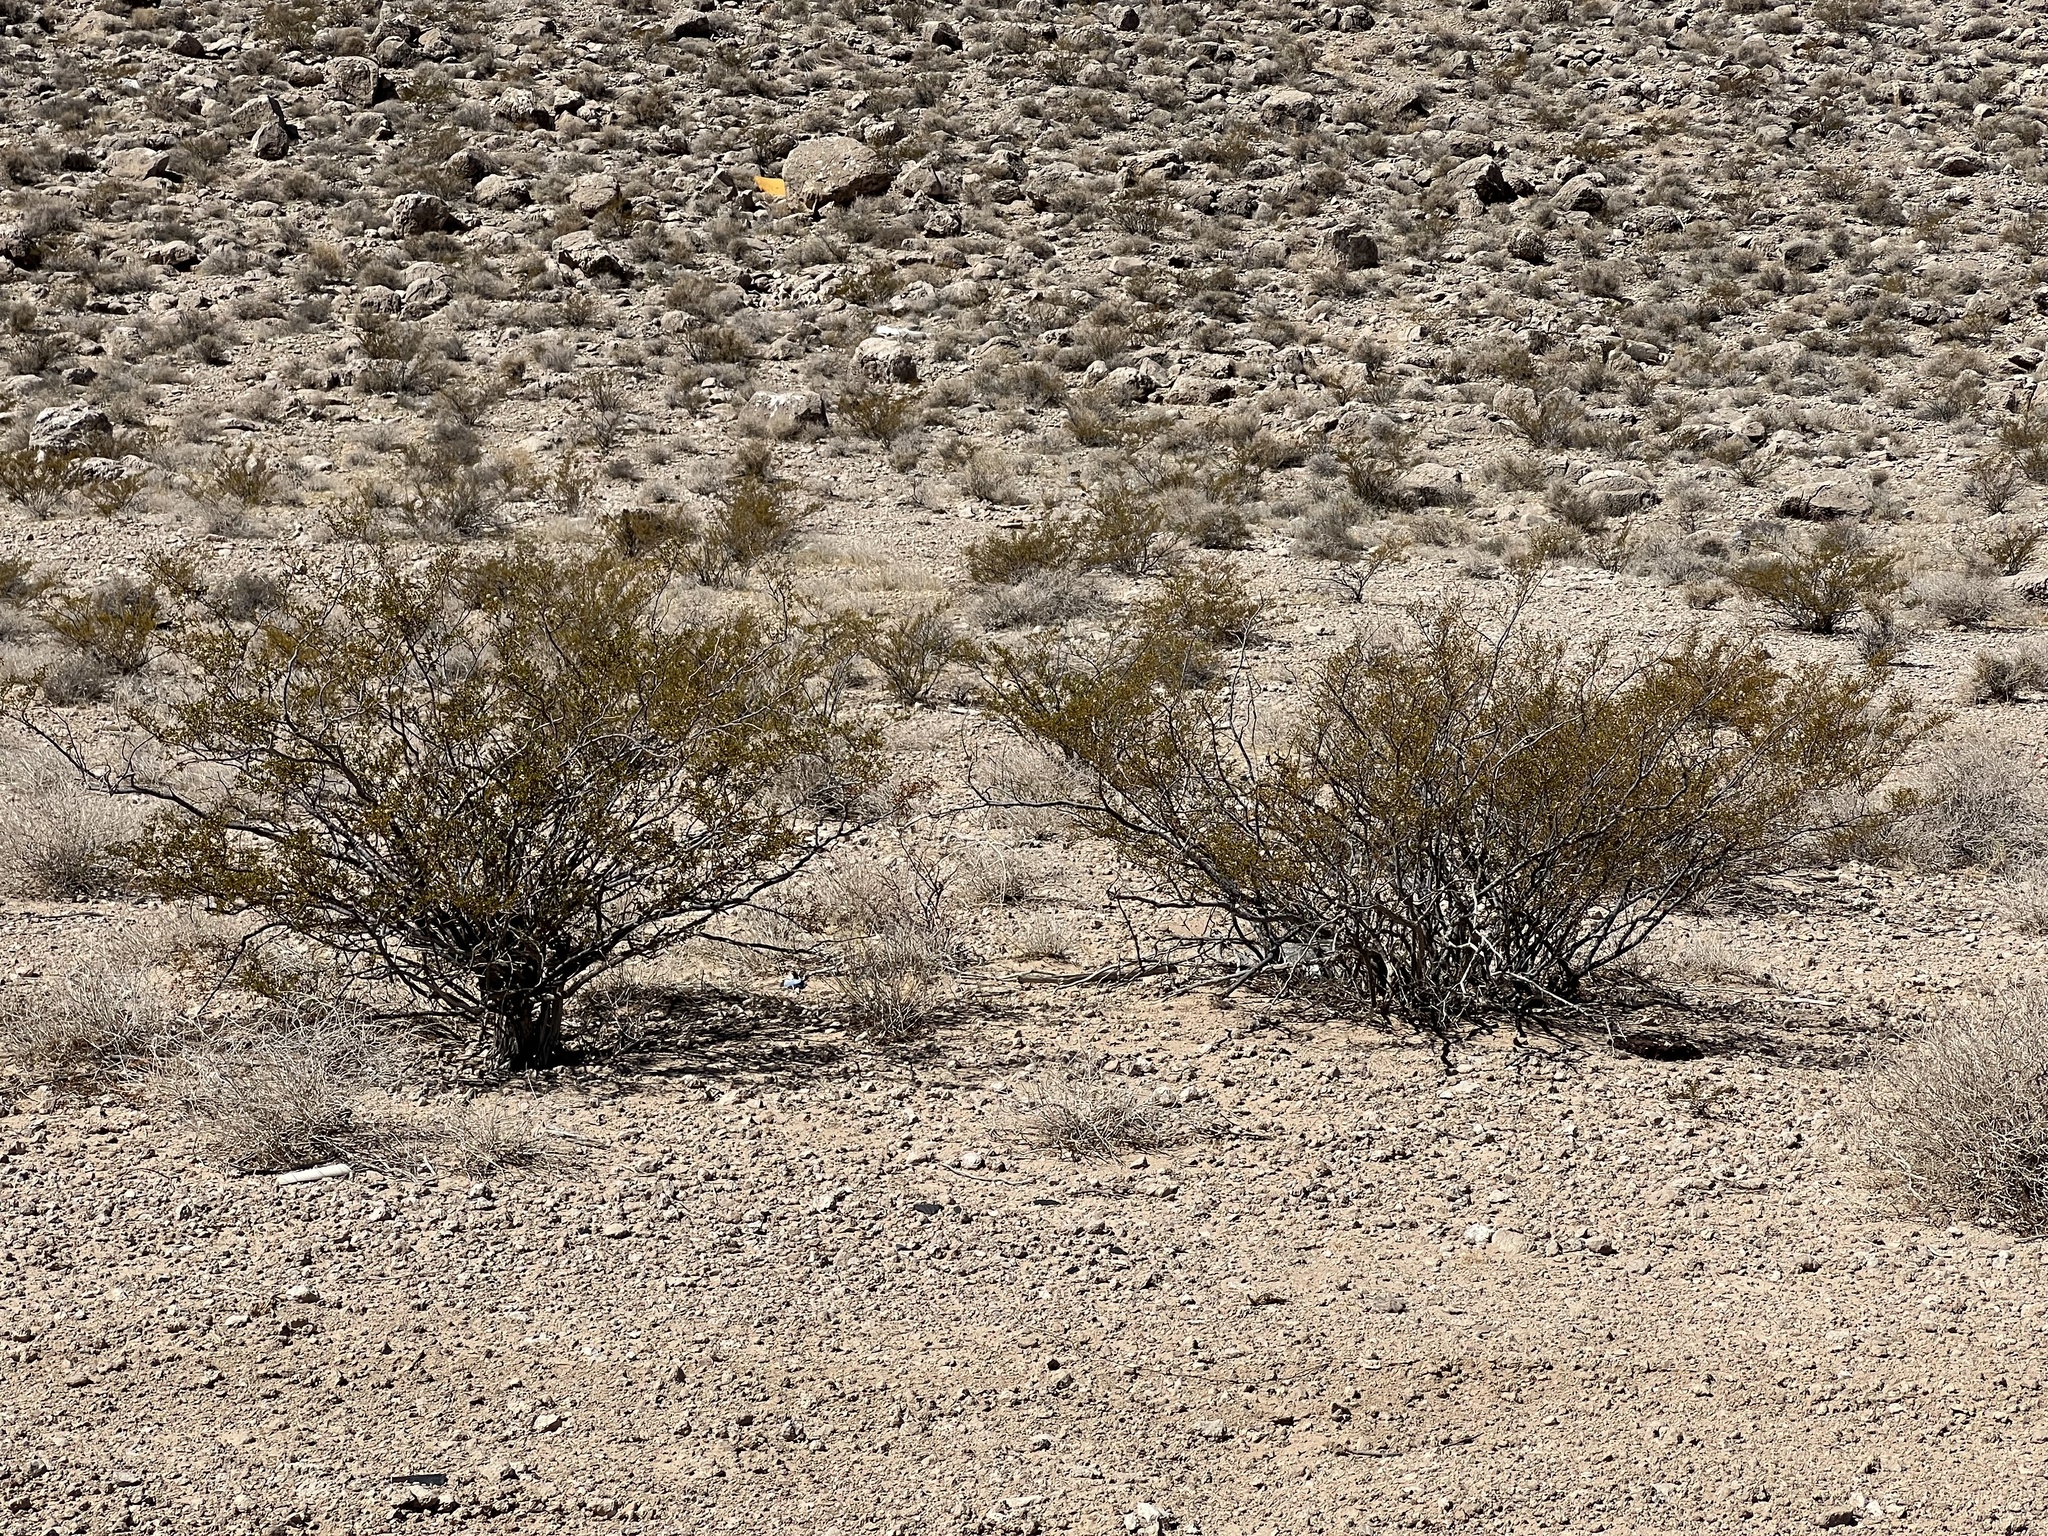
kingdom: Plantae
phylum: Tracheophyta
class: Magnoliopsida
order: Zygophyllales
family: Zygophyllaceae
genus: Larrea
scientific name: Larrea tridentata
